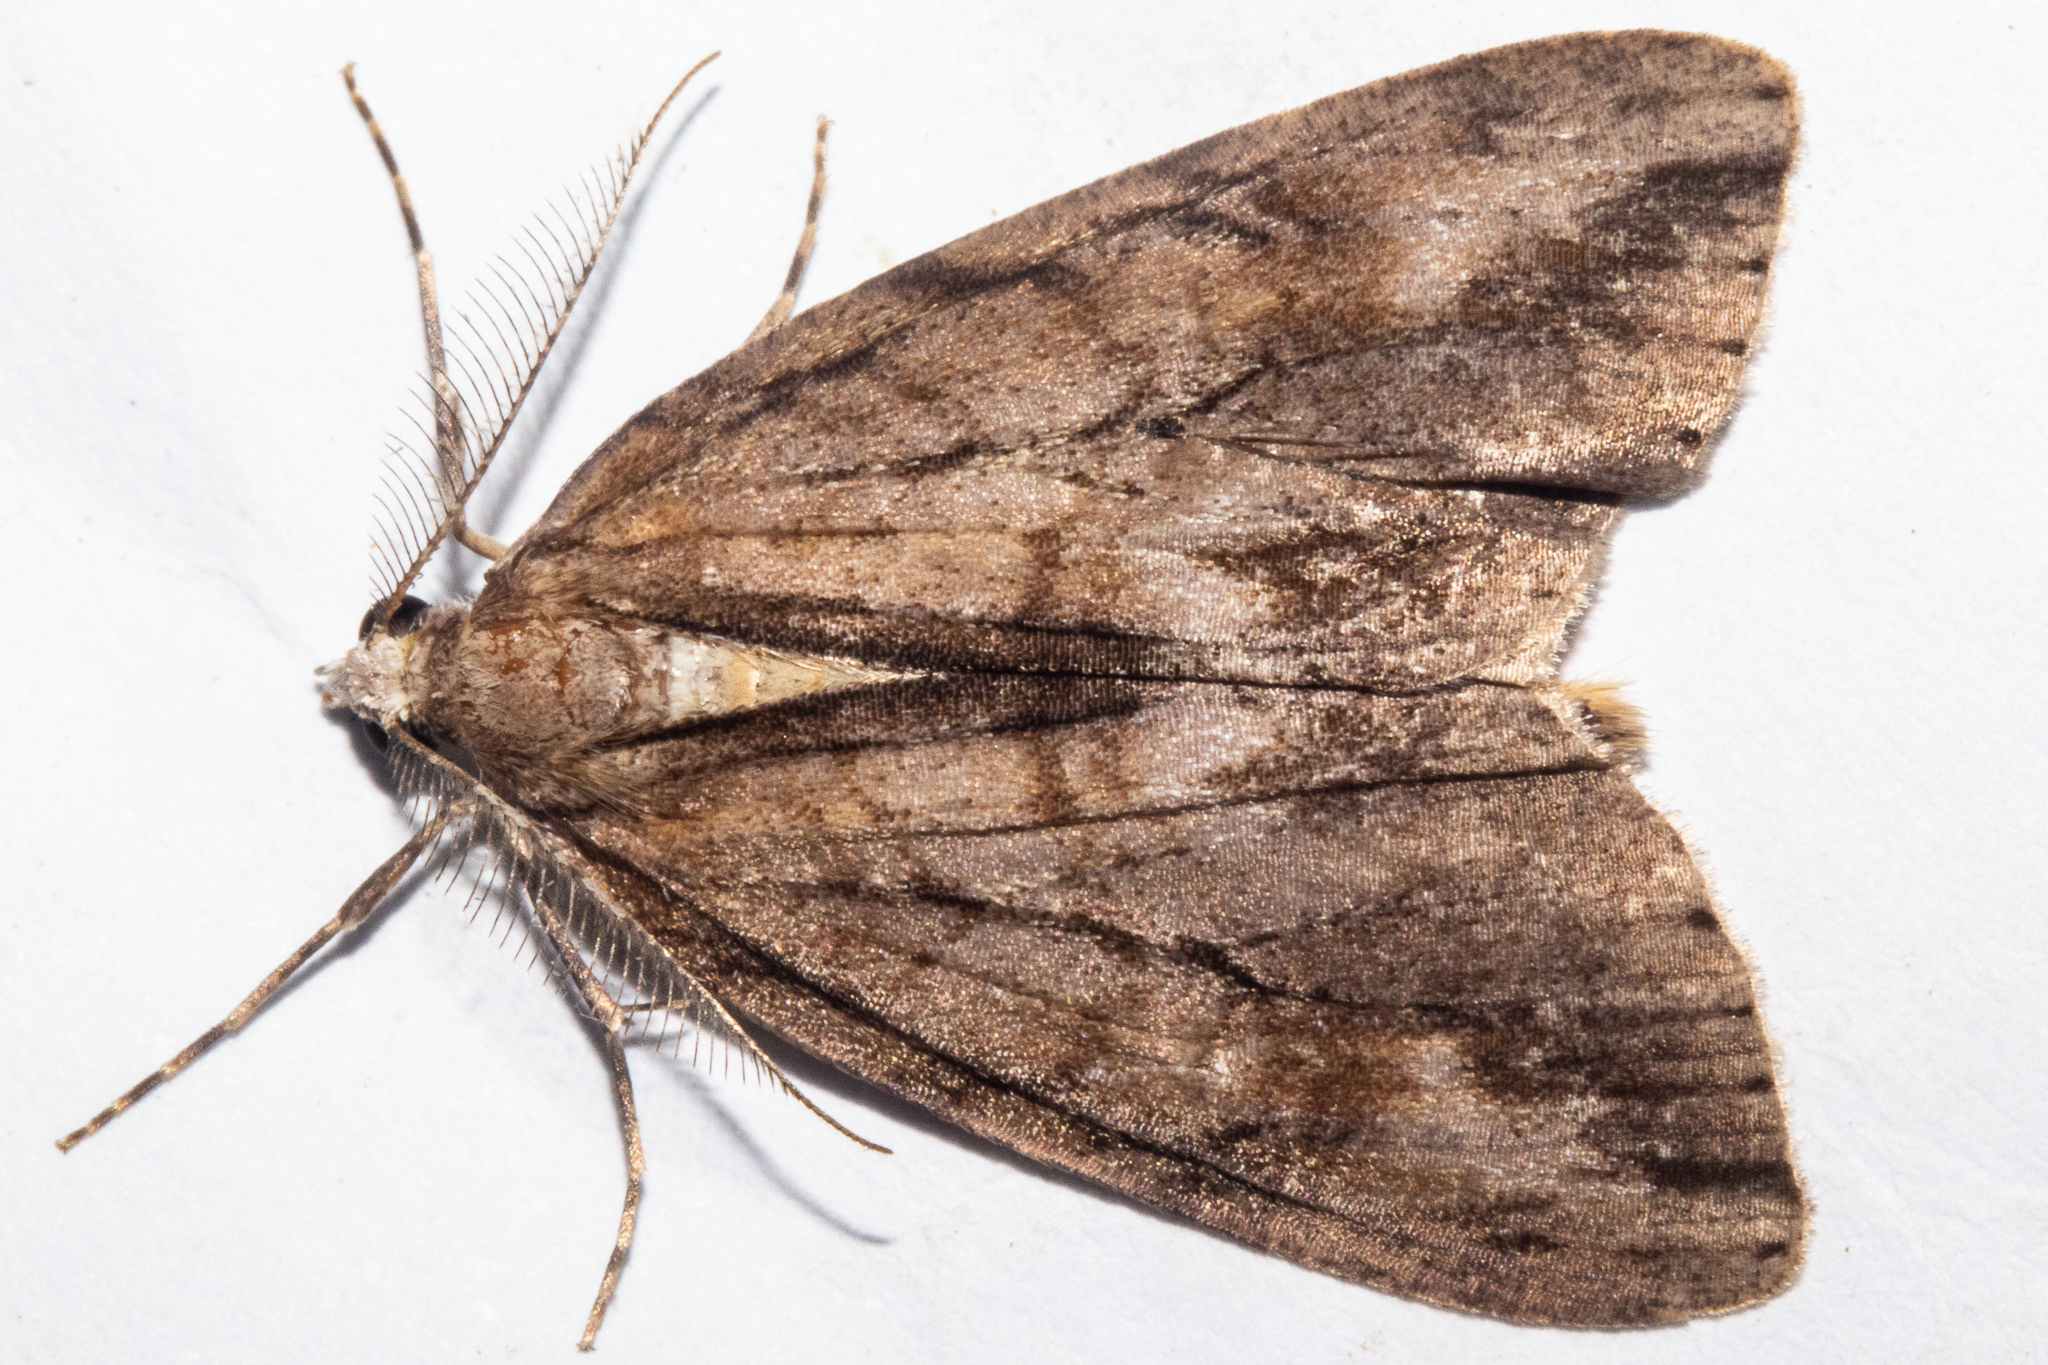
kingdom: Animalia
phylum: Arthropoda
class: Insecta
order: Lepidoptera
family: Geometridae
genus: Pseudocoremia
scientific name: Pseudocoremia lupinata
